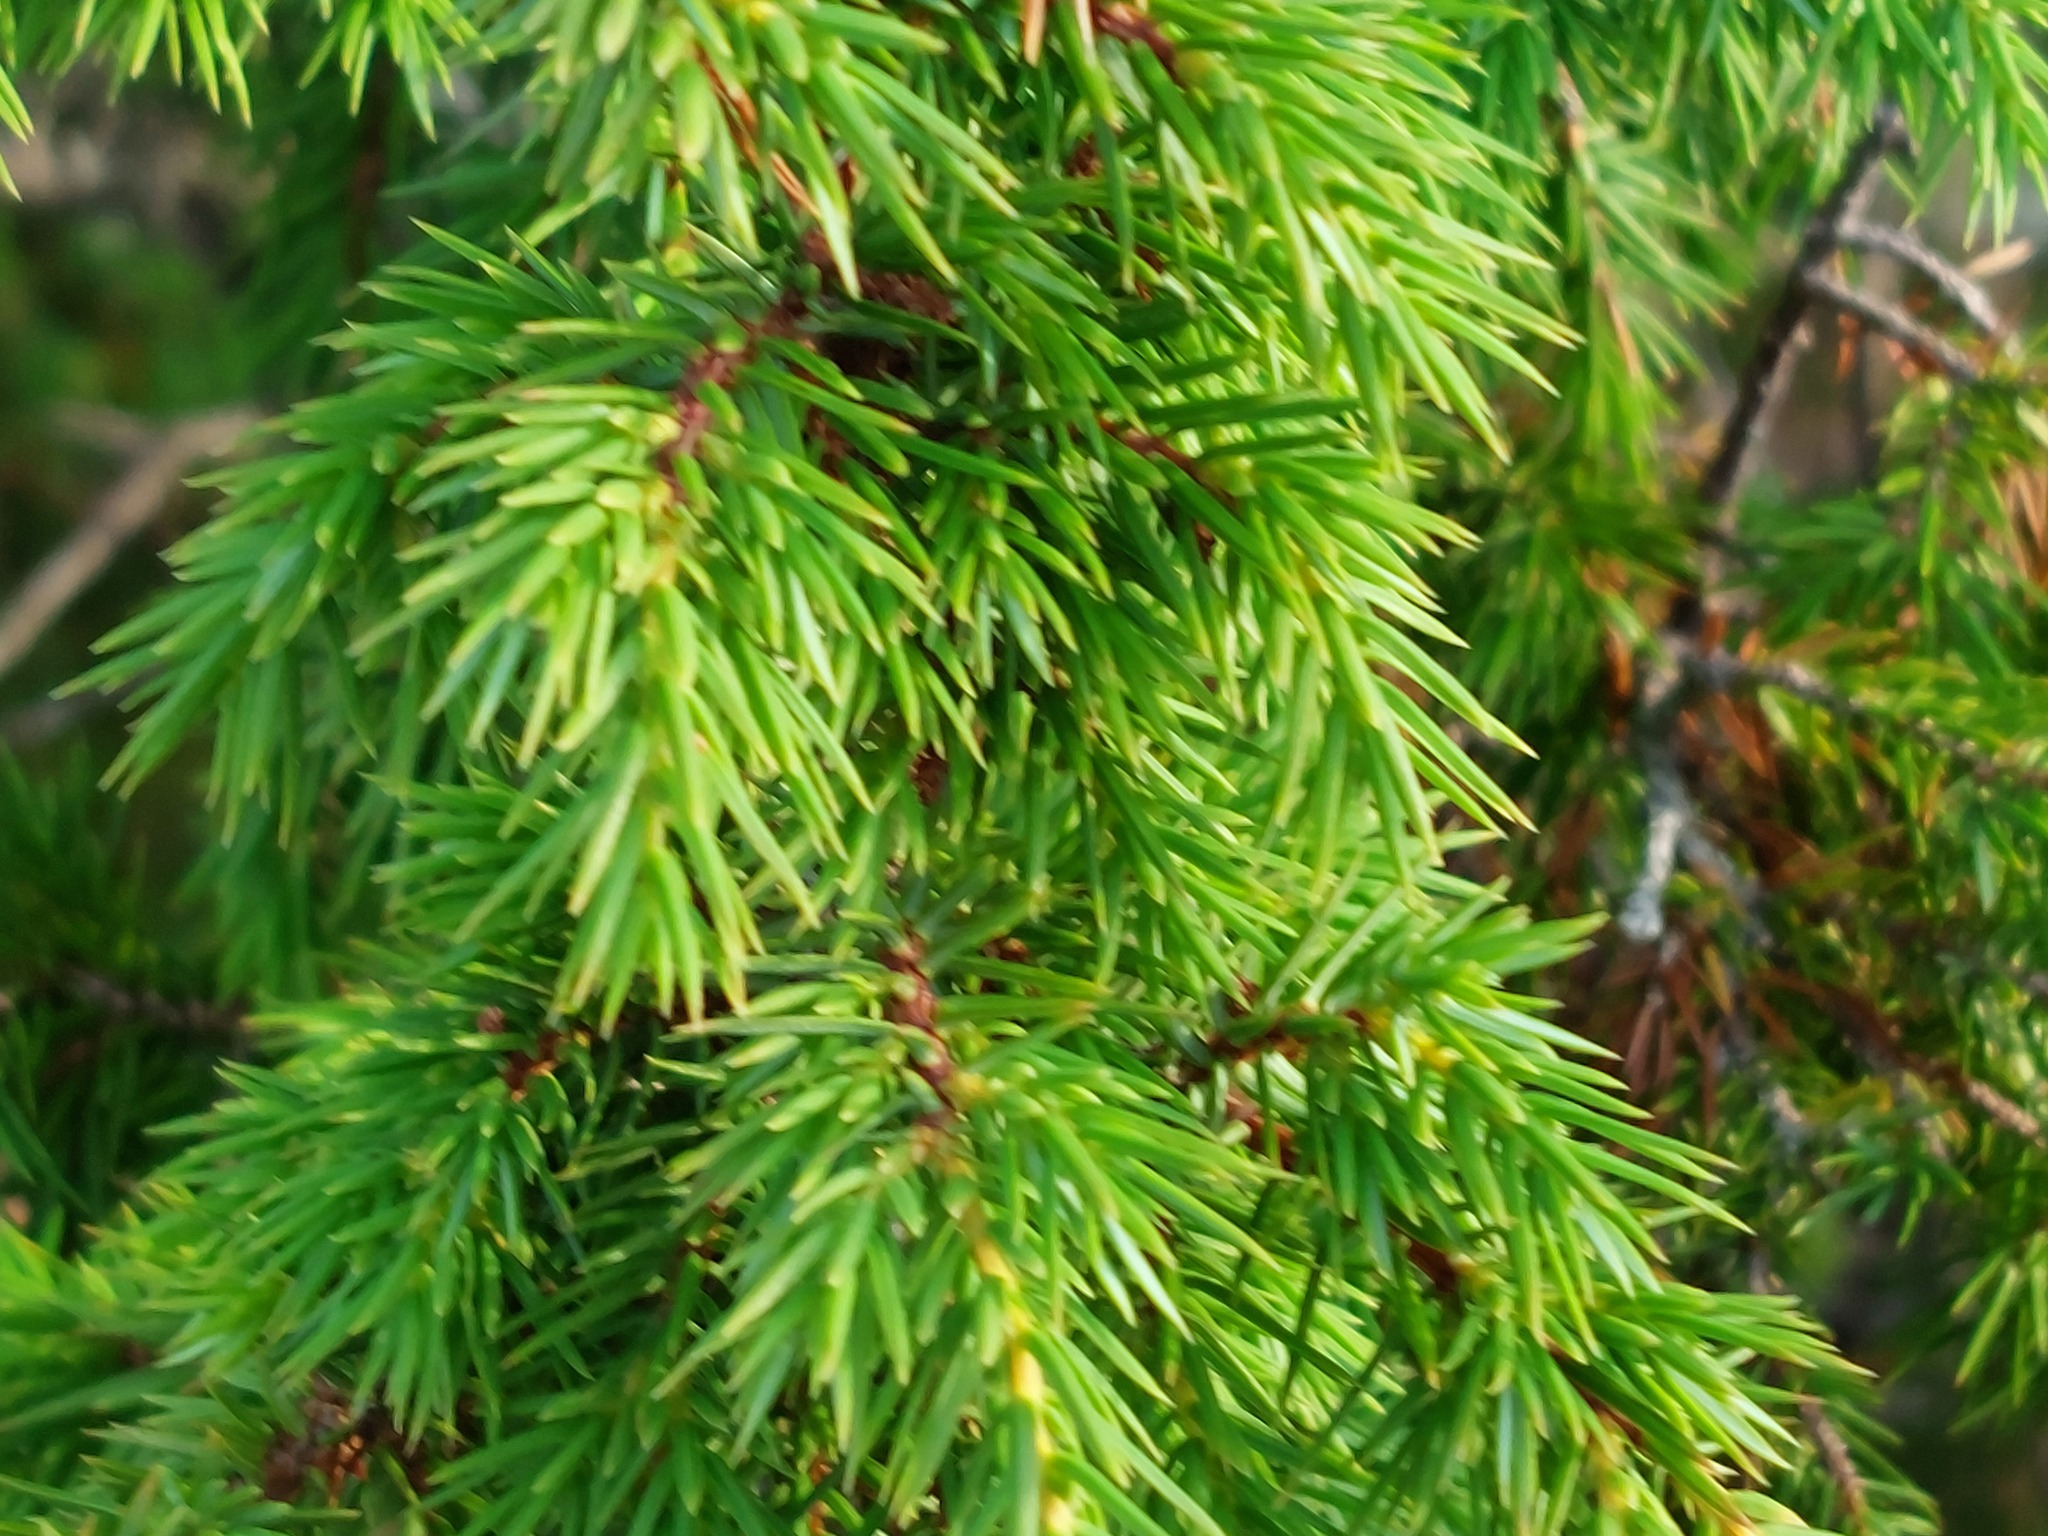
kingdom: Plantae
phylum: Tracheophyta
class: Pinopsida
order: Pinales
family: Cupressaceae
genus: Juniperus
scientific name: Juniperus communis
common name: Common juniper
